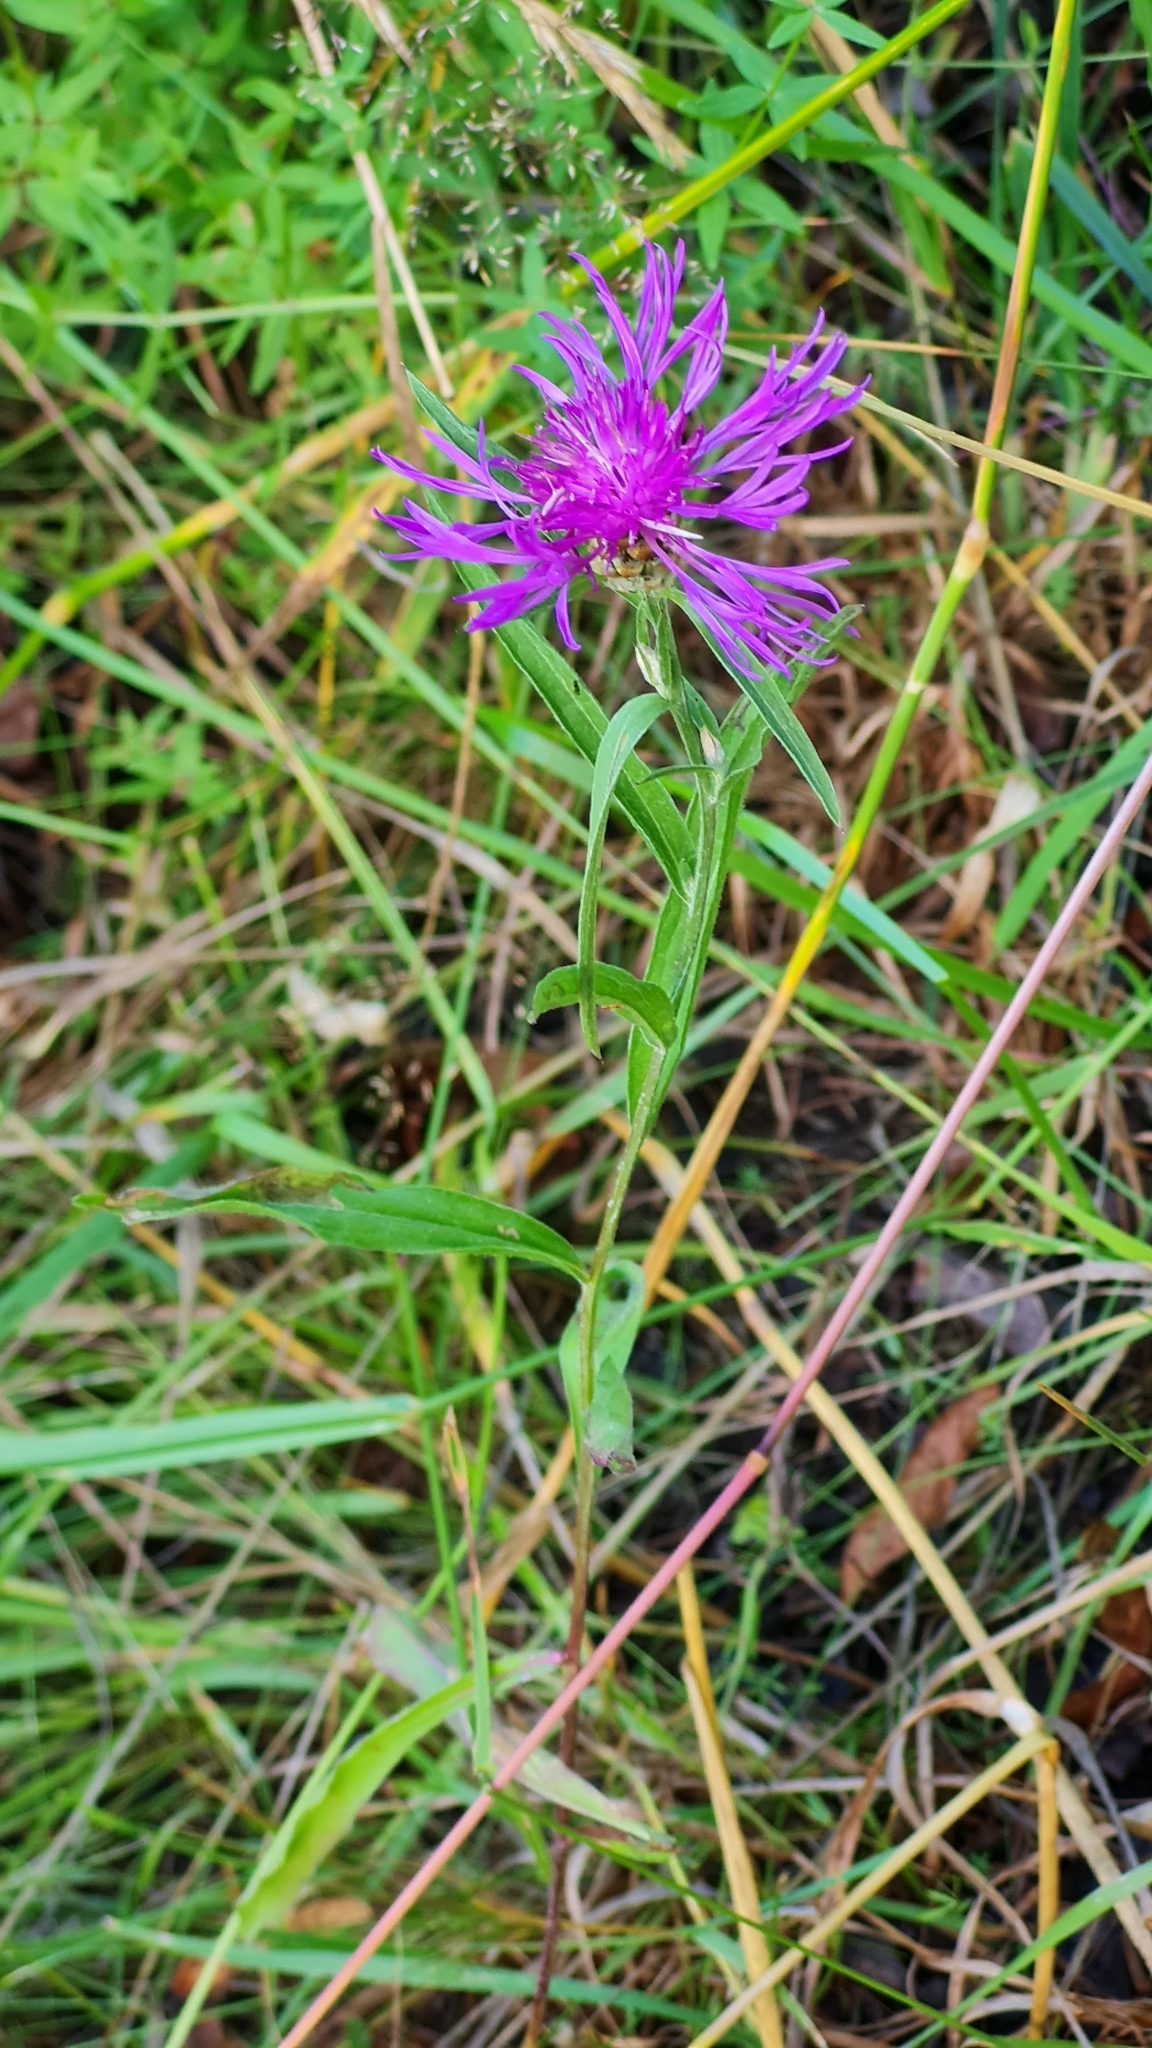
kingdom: Plantae
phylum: Tracheophyta
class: Magnoliopsida
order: Asterales
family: Asteraceae
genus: Centaurea
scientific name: Centaurea jacea
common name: Brown knapweed
